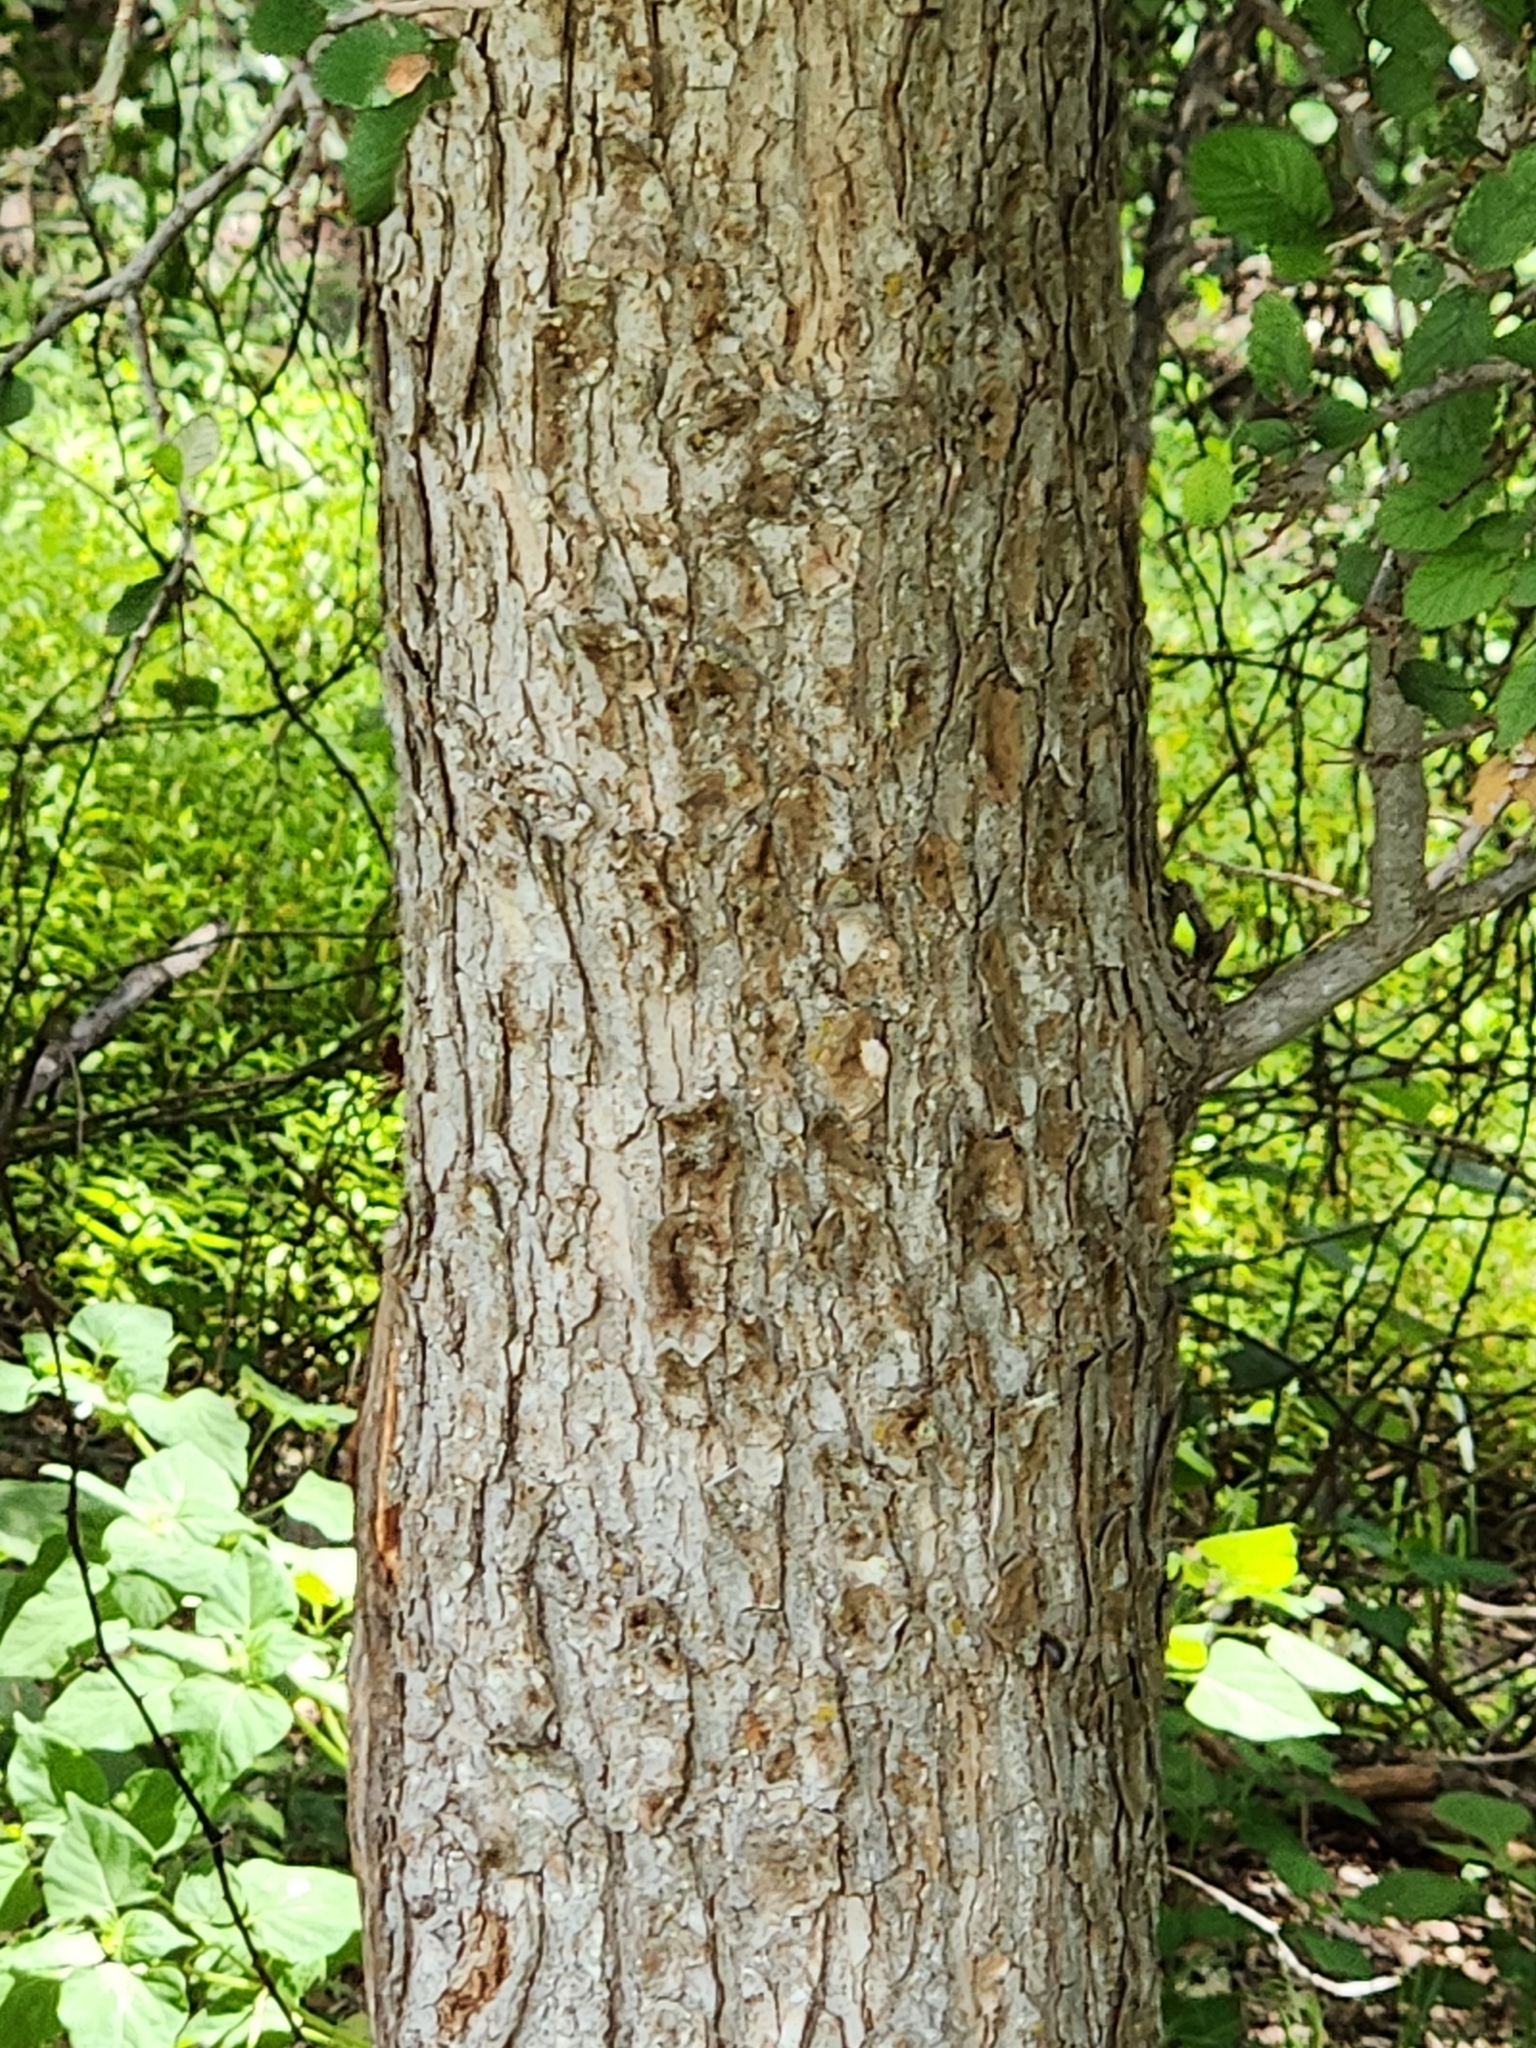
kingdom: Plantae
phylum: Tracheophyta
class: Magnoliopsida
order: Rosales
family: Ulmaceae
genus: Ulmus
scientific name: Ulmus crassifolia
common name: Basket elm
